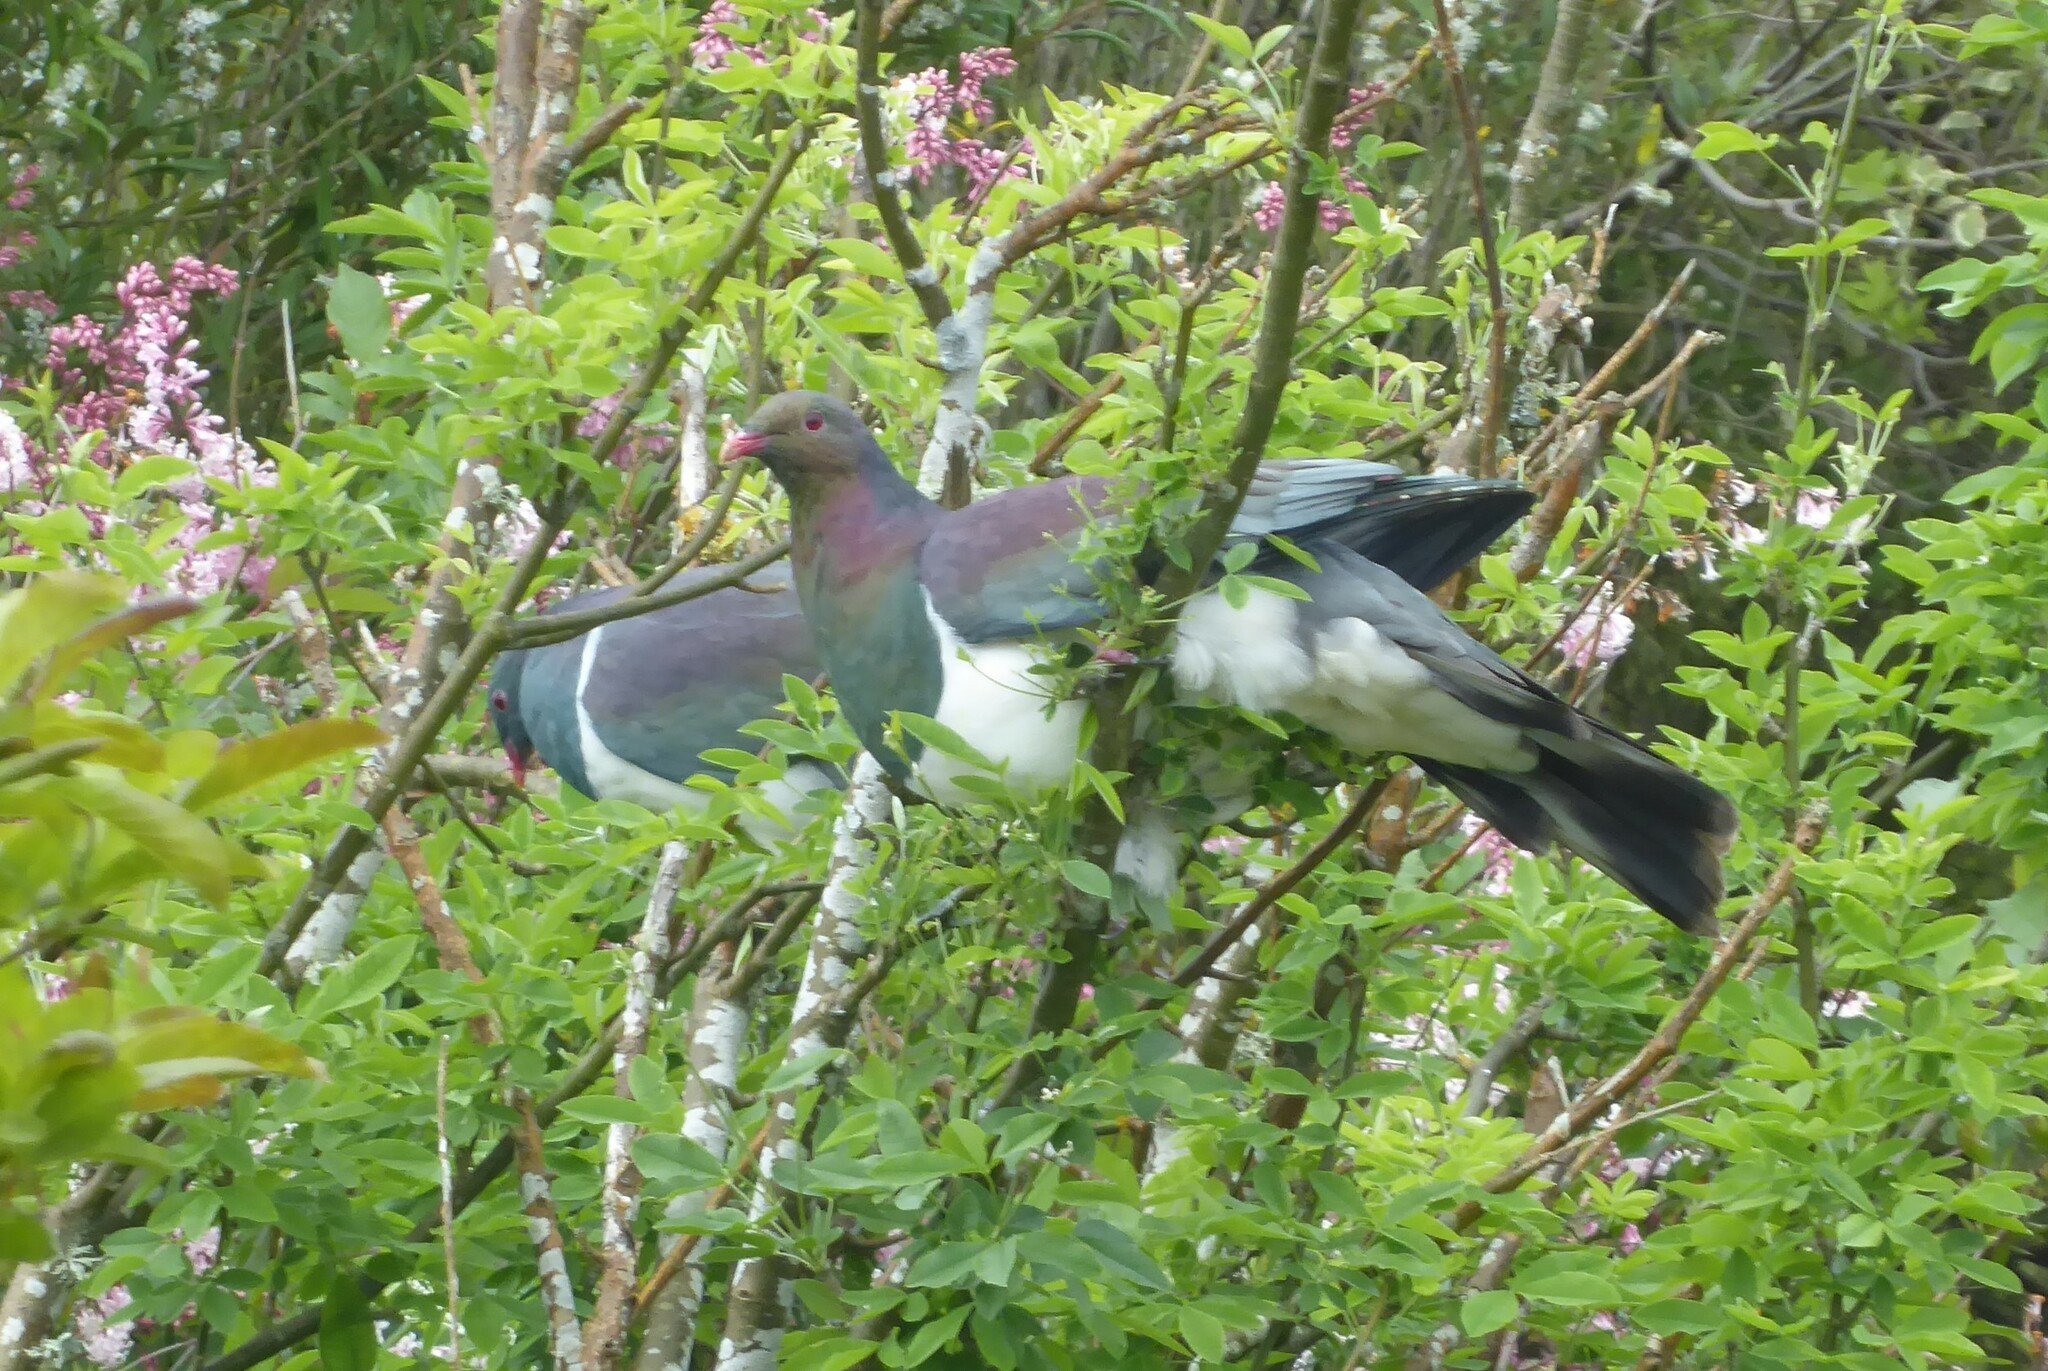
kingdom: Animalia
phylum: Chordata
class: Aves
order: Columbiformes
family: Columbidae
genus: Hemiphaga
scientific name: Hemiphaga novaeseelandiae
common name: New zealand pigeon
